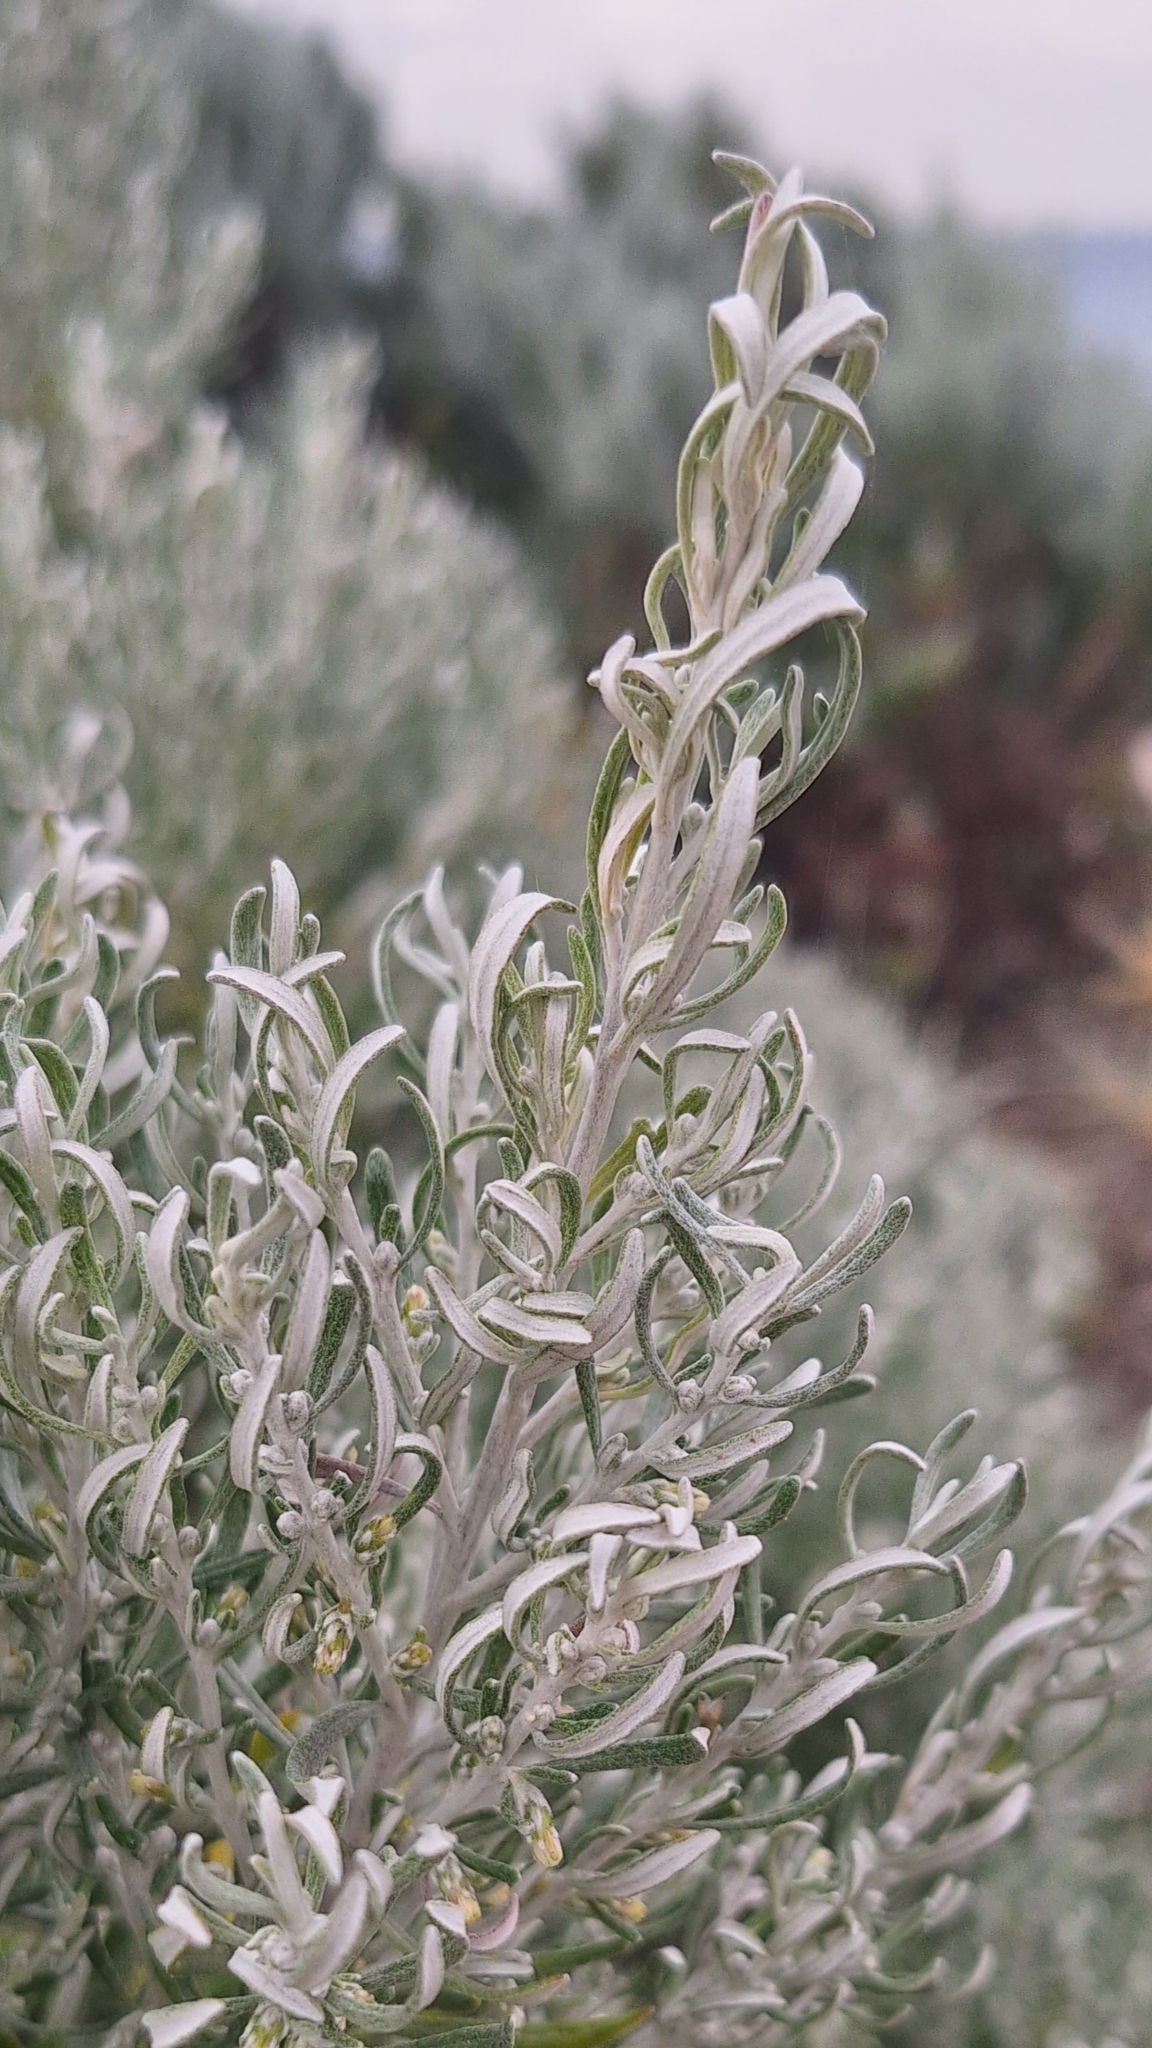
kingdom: Plantae
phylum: Tracheophyta
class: Magnoliopsida
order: Asterales
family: Asteraceae
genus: Olearia
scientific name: Olearia axillaris
